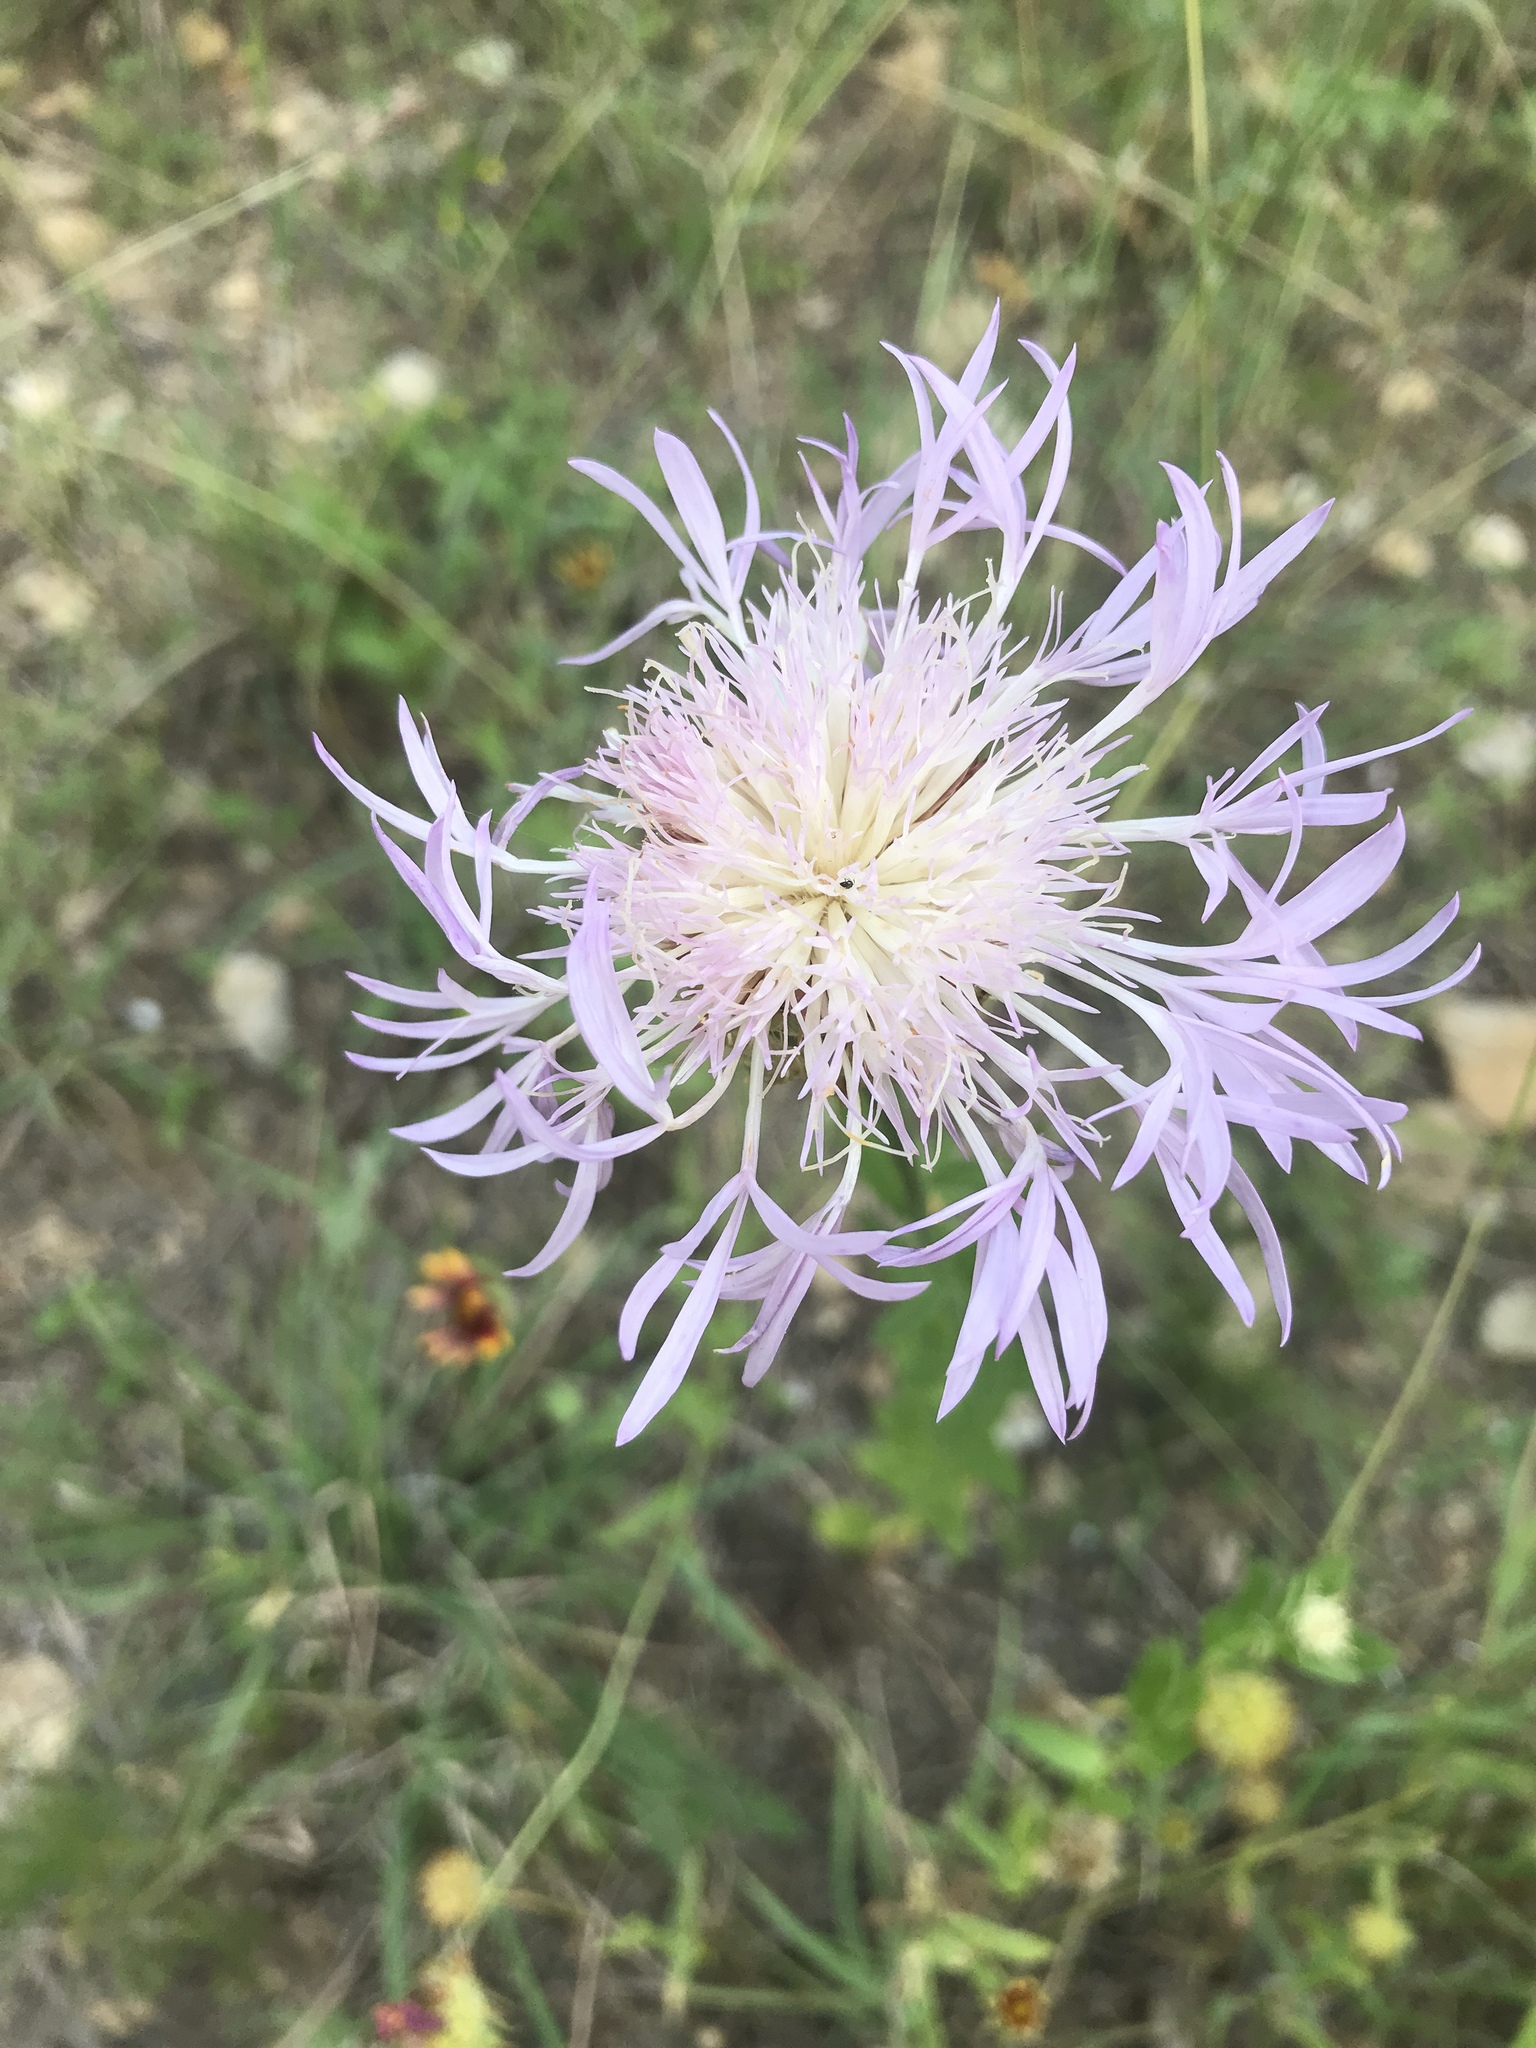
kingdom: Plantae
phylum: Tracheophyta
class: Magnoliopsida
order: Asterales
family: Asteraceae
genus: Plectocephalus
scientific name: Plectocephalus americanus
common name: American basket-flower
